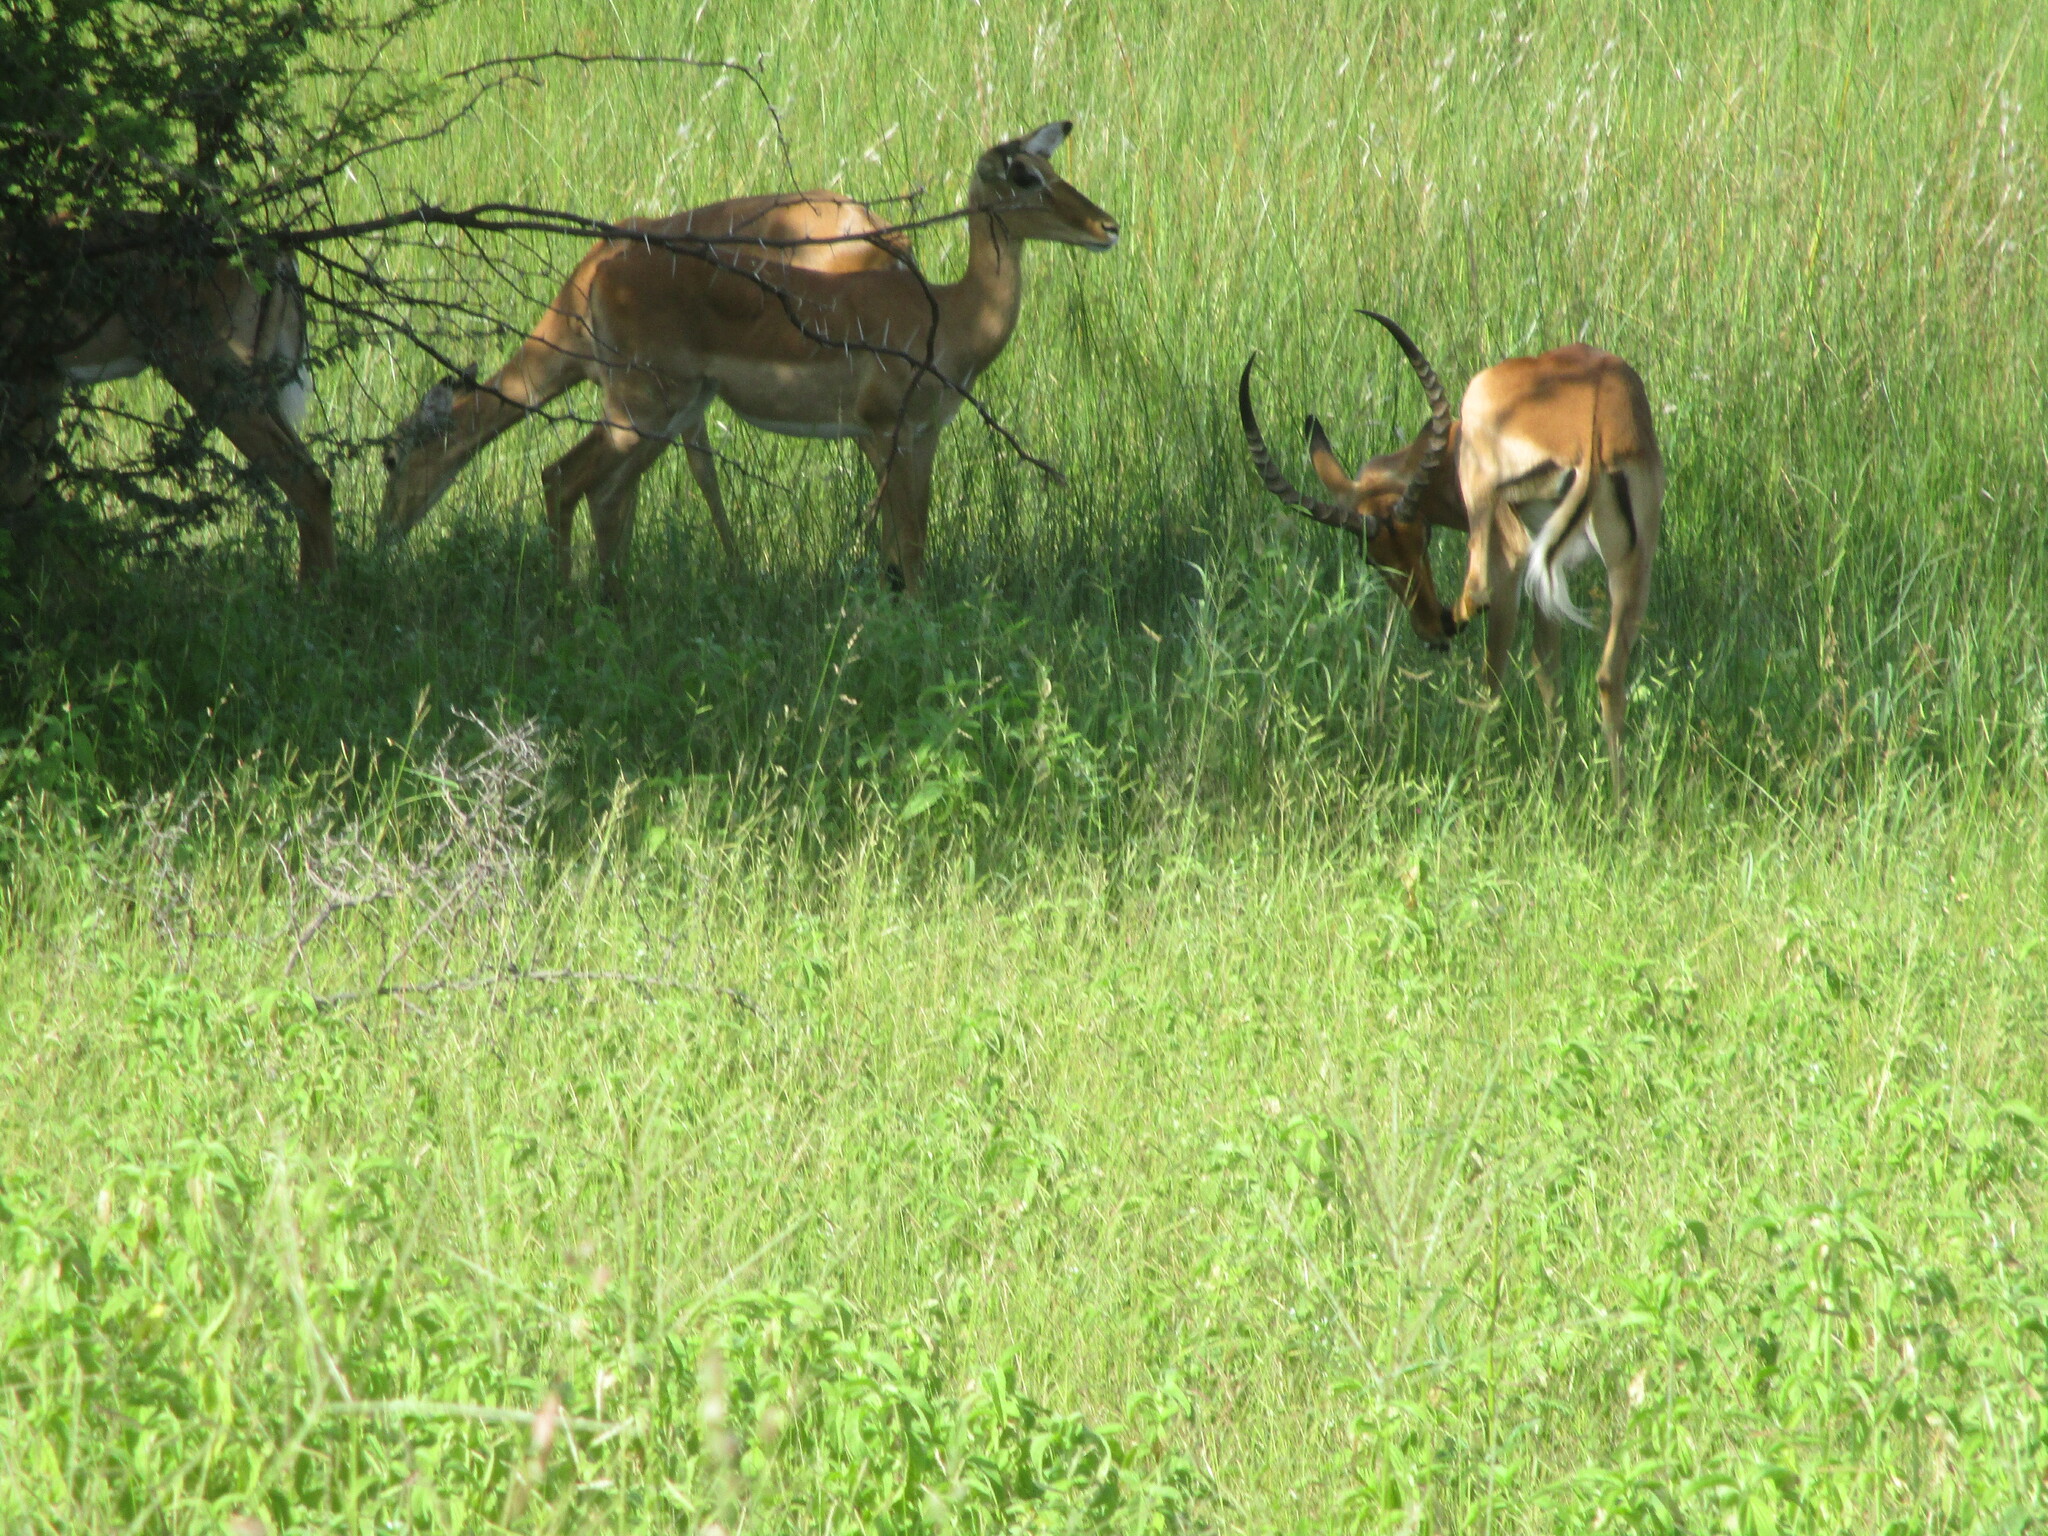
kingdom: Animalia
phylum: Chordata
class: Mammalia
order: Artiodactyla
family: Bovidae
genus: Aepyceros
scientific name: Aepyceros melampus
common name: Impala
